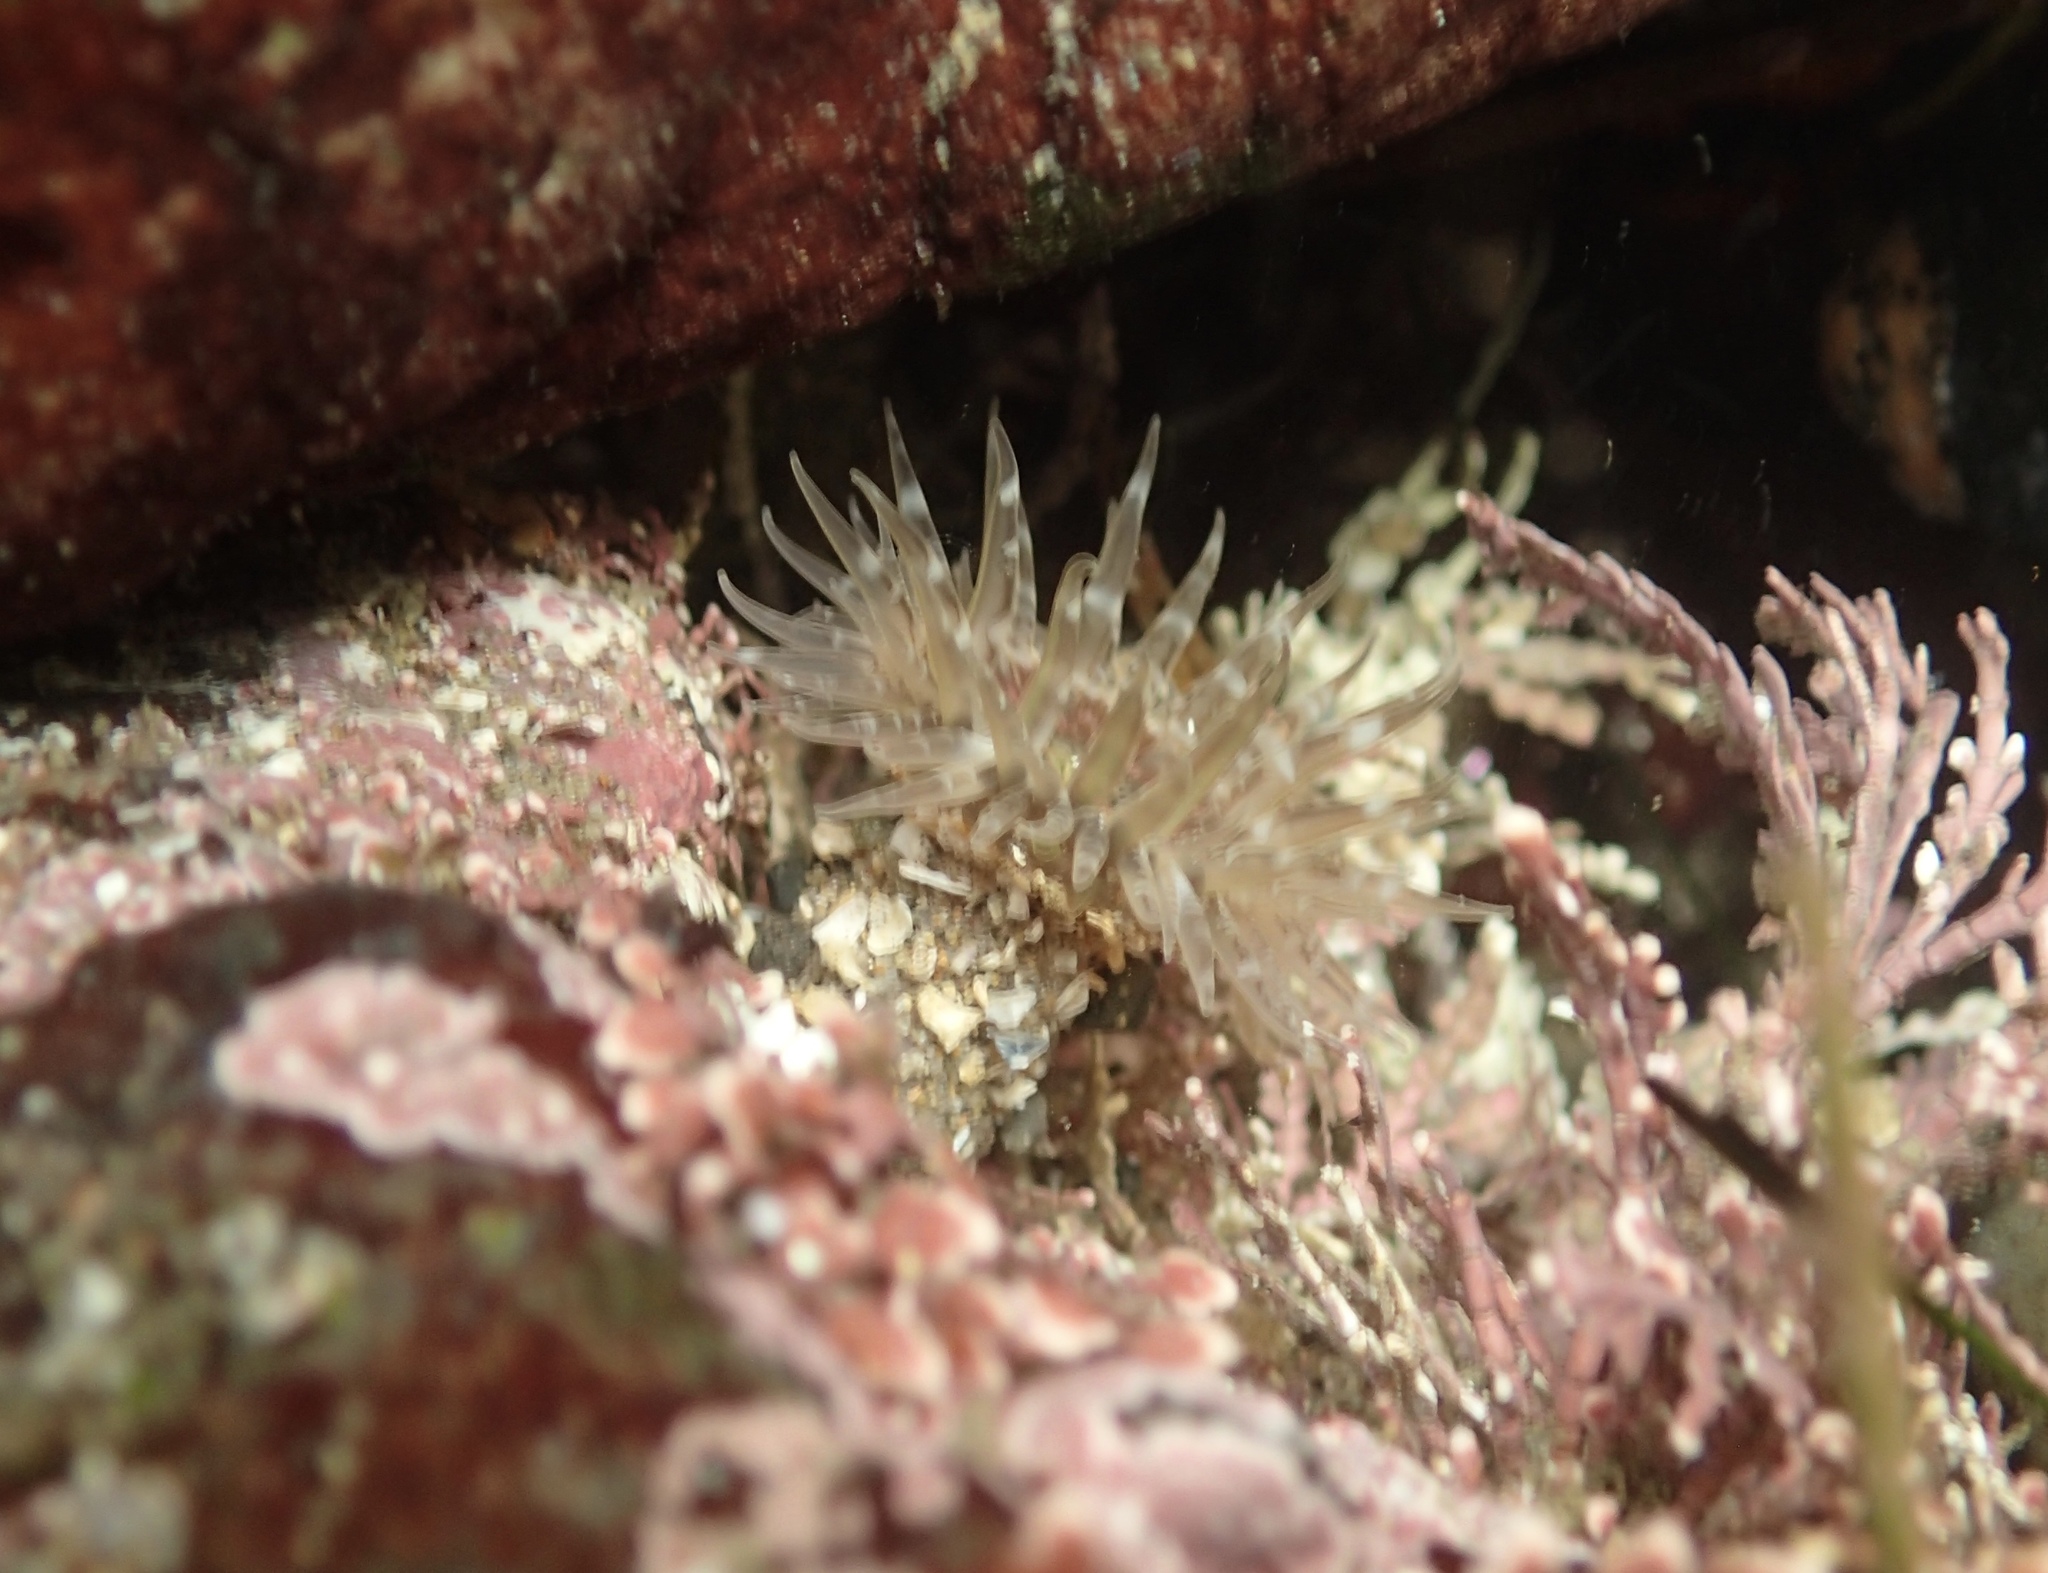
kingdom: Animalia
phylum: Cnidaria
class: Anthozoa
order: Actiniaria
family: Actiniidae
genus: Anthopleura
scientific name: Anthopleura artemisia
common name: Buried sea anemone
